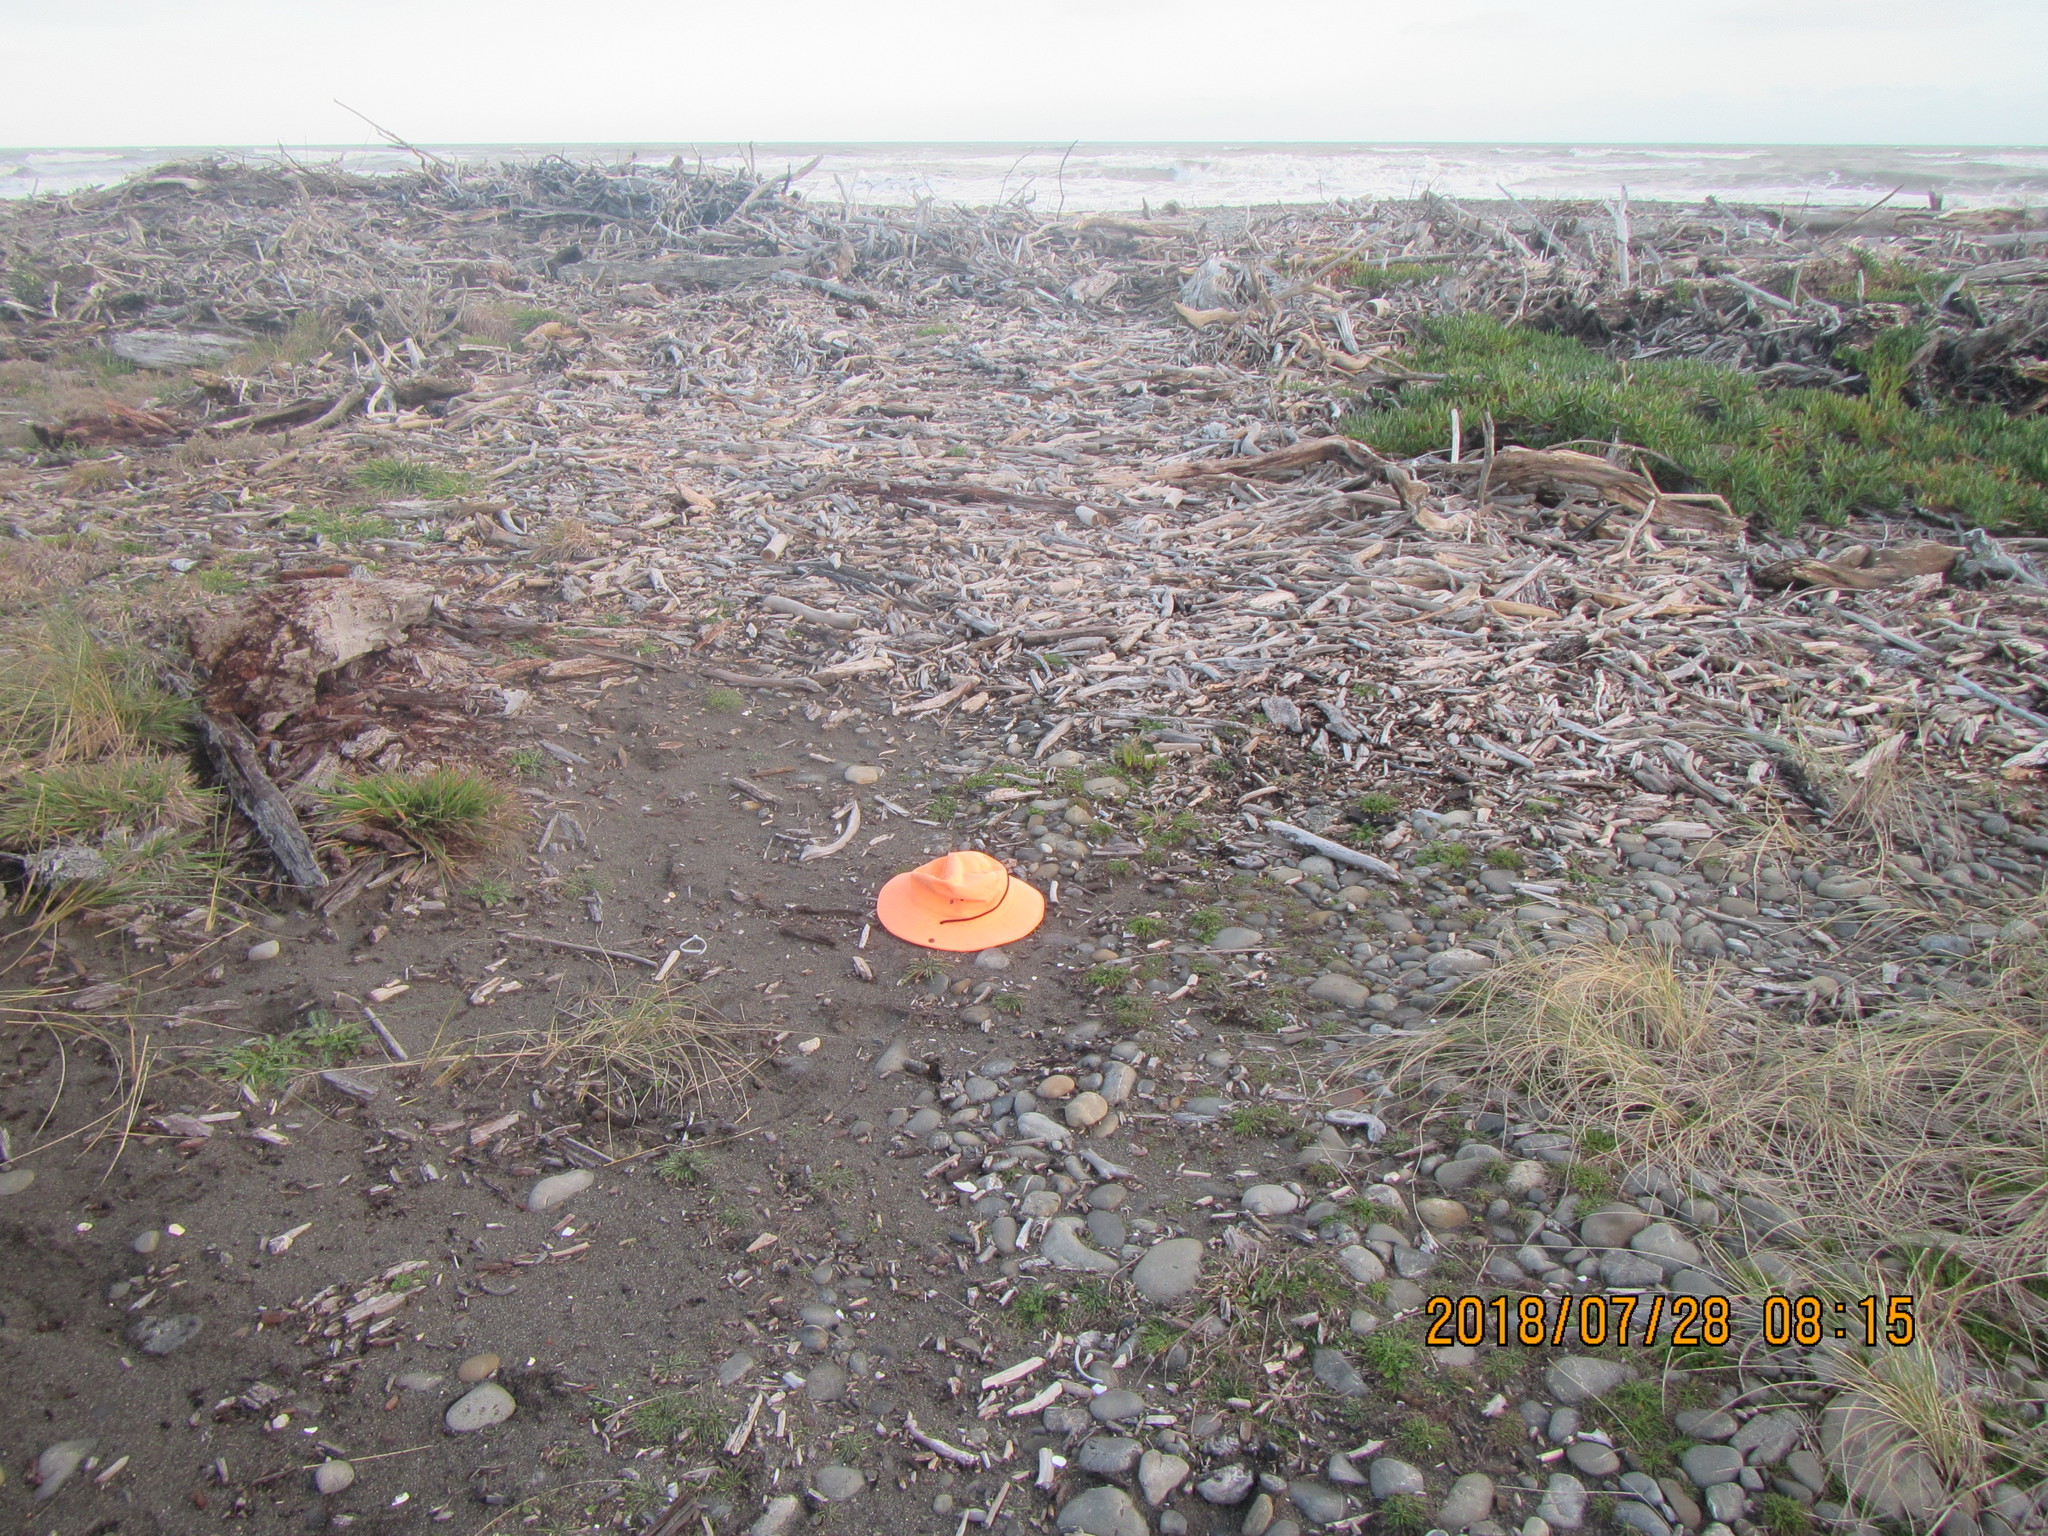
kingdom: Plantae
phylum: Tracheophyta
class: Magnoliopsida
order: Lamiales
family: Plantaginaceae
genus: Plantago
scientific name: Plantago coronopus
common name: Buck's-horn plantain
